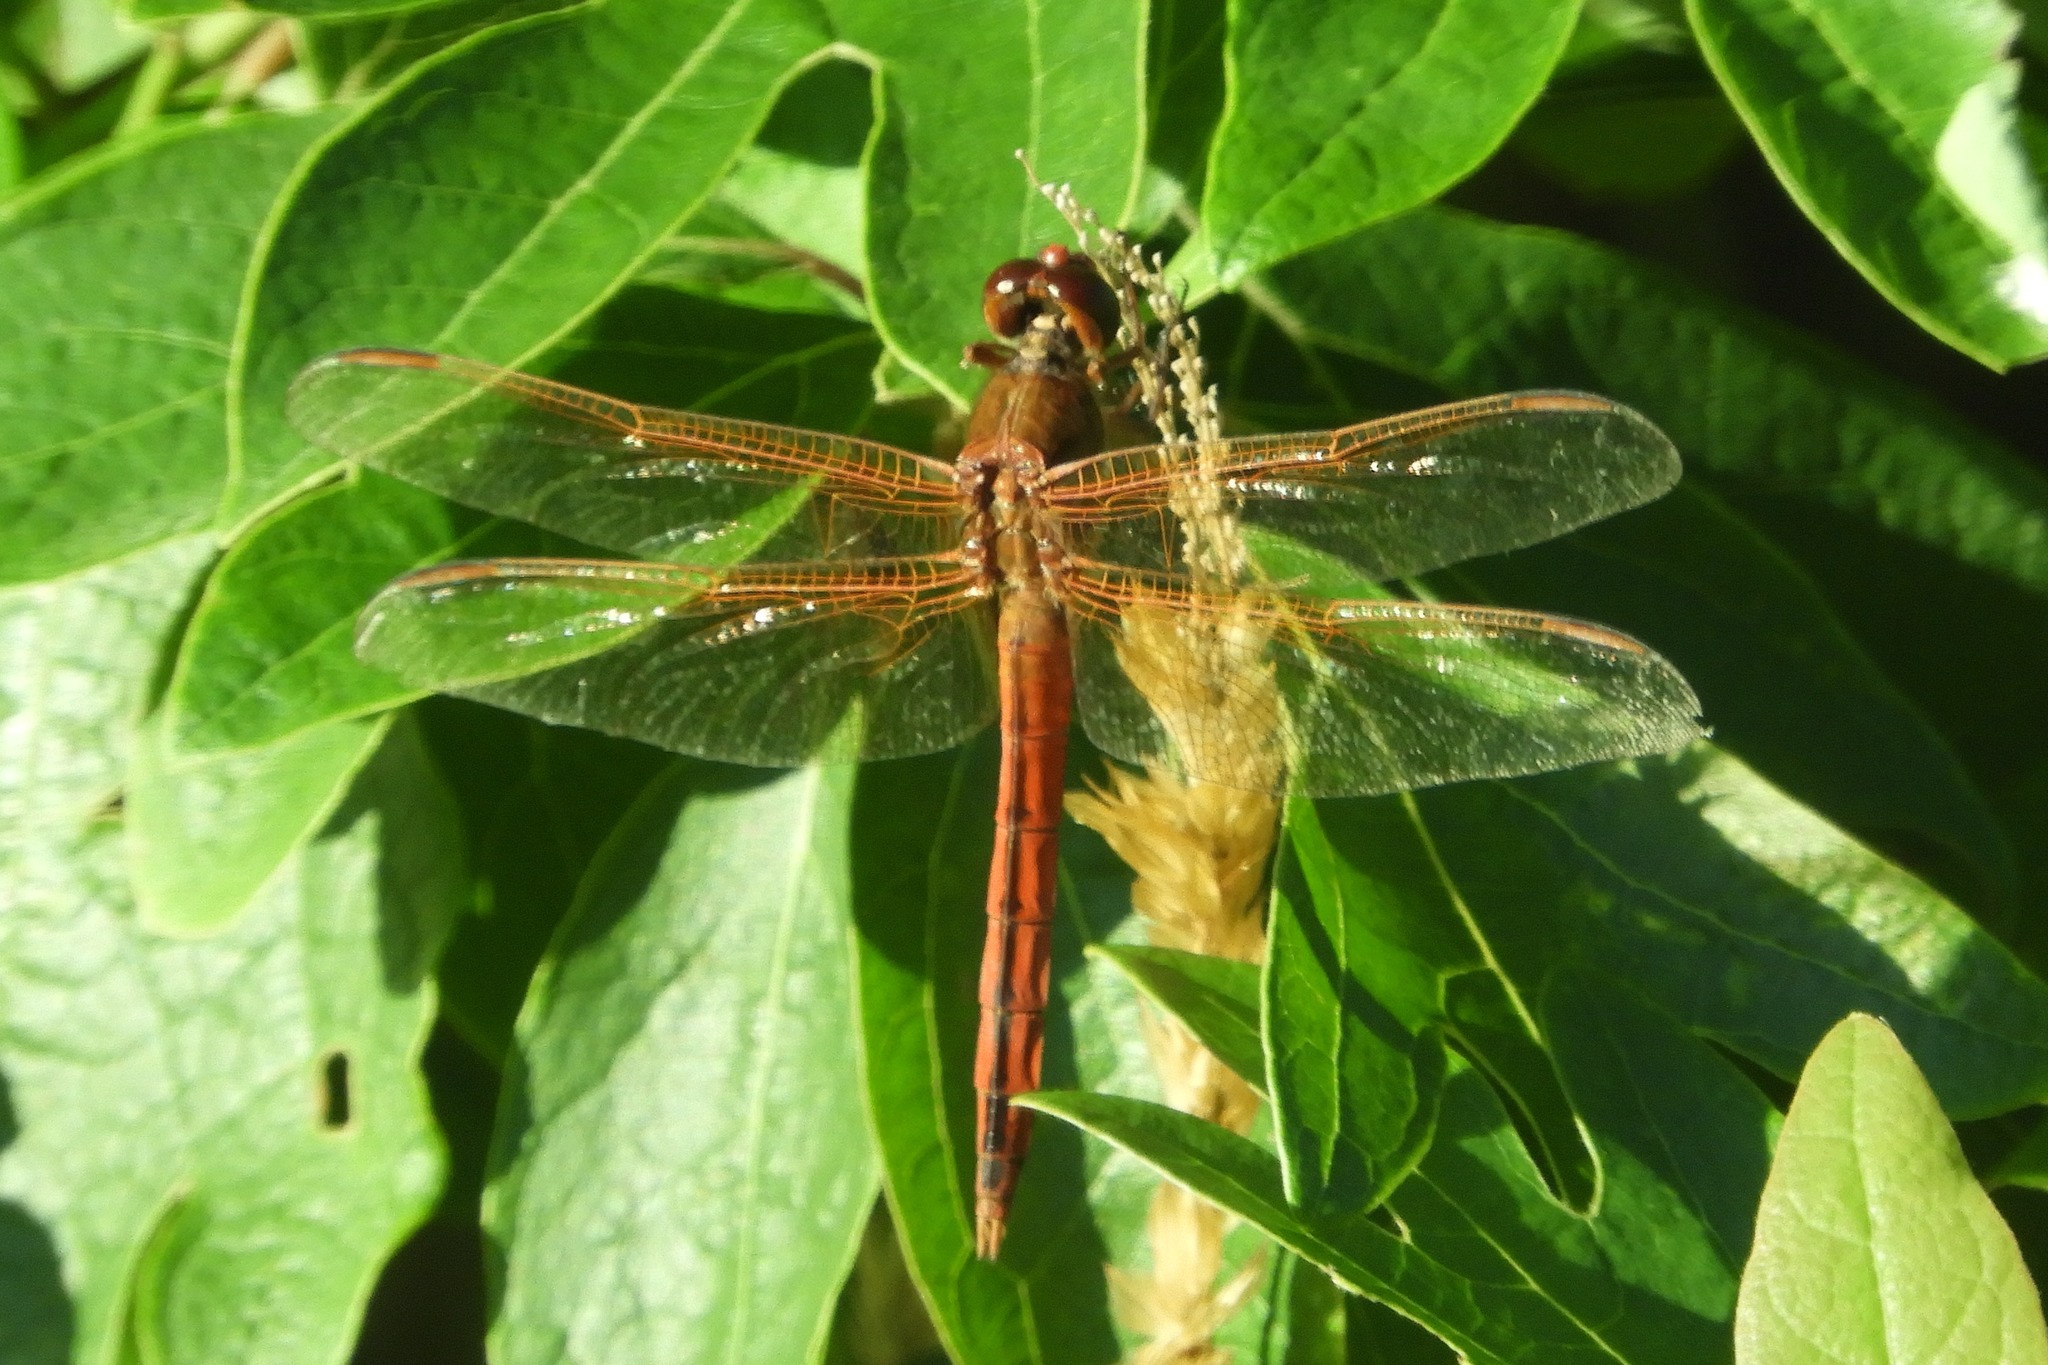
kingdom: Animalia
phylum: Arthropoda
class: Insecta
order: Odonata
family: Libellulidae
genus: Libellula
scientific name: Libellula needhami
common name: Needham's skimmer
